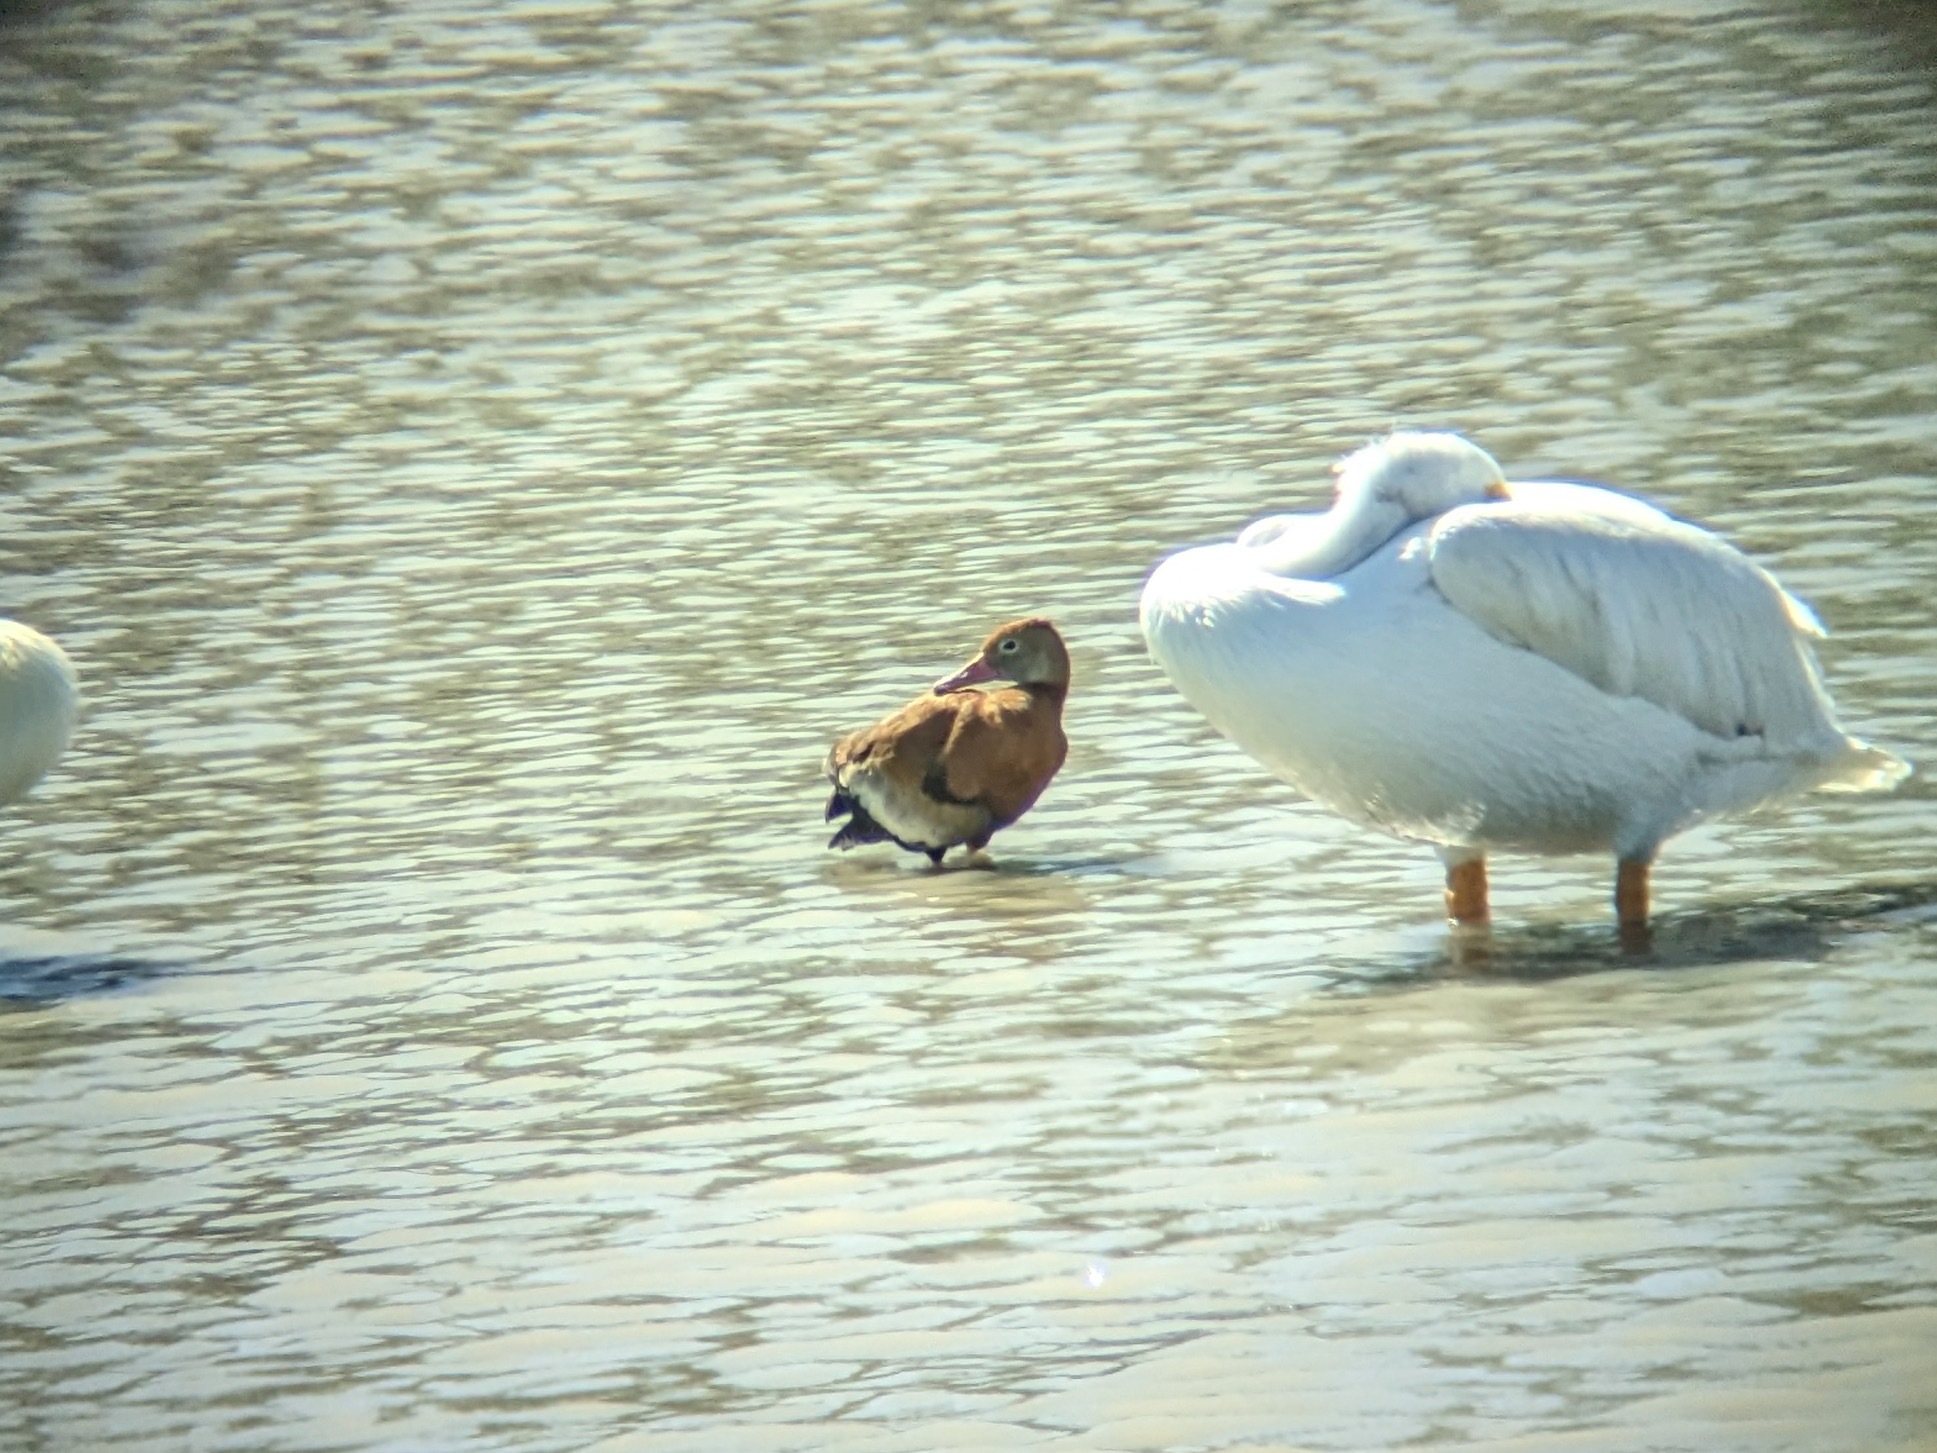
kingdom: Animalia
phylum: Chordata
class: Aves
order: Anseriformes
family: Anatidae
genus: Dendrocygna
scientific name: Dendrocygna autumnalis
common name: Black-bellied whistling duck
